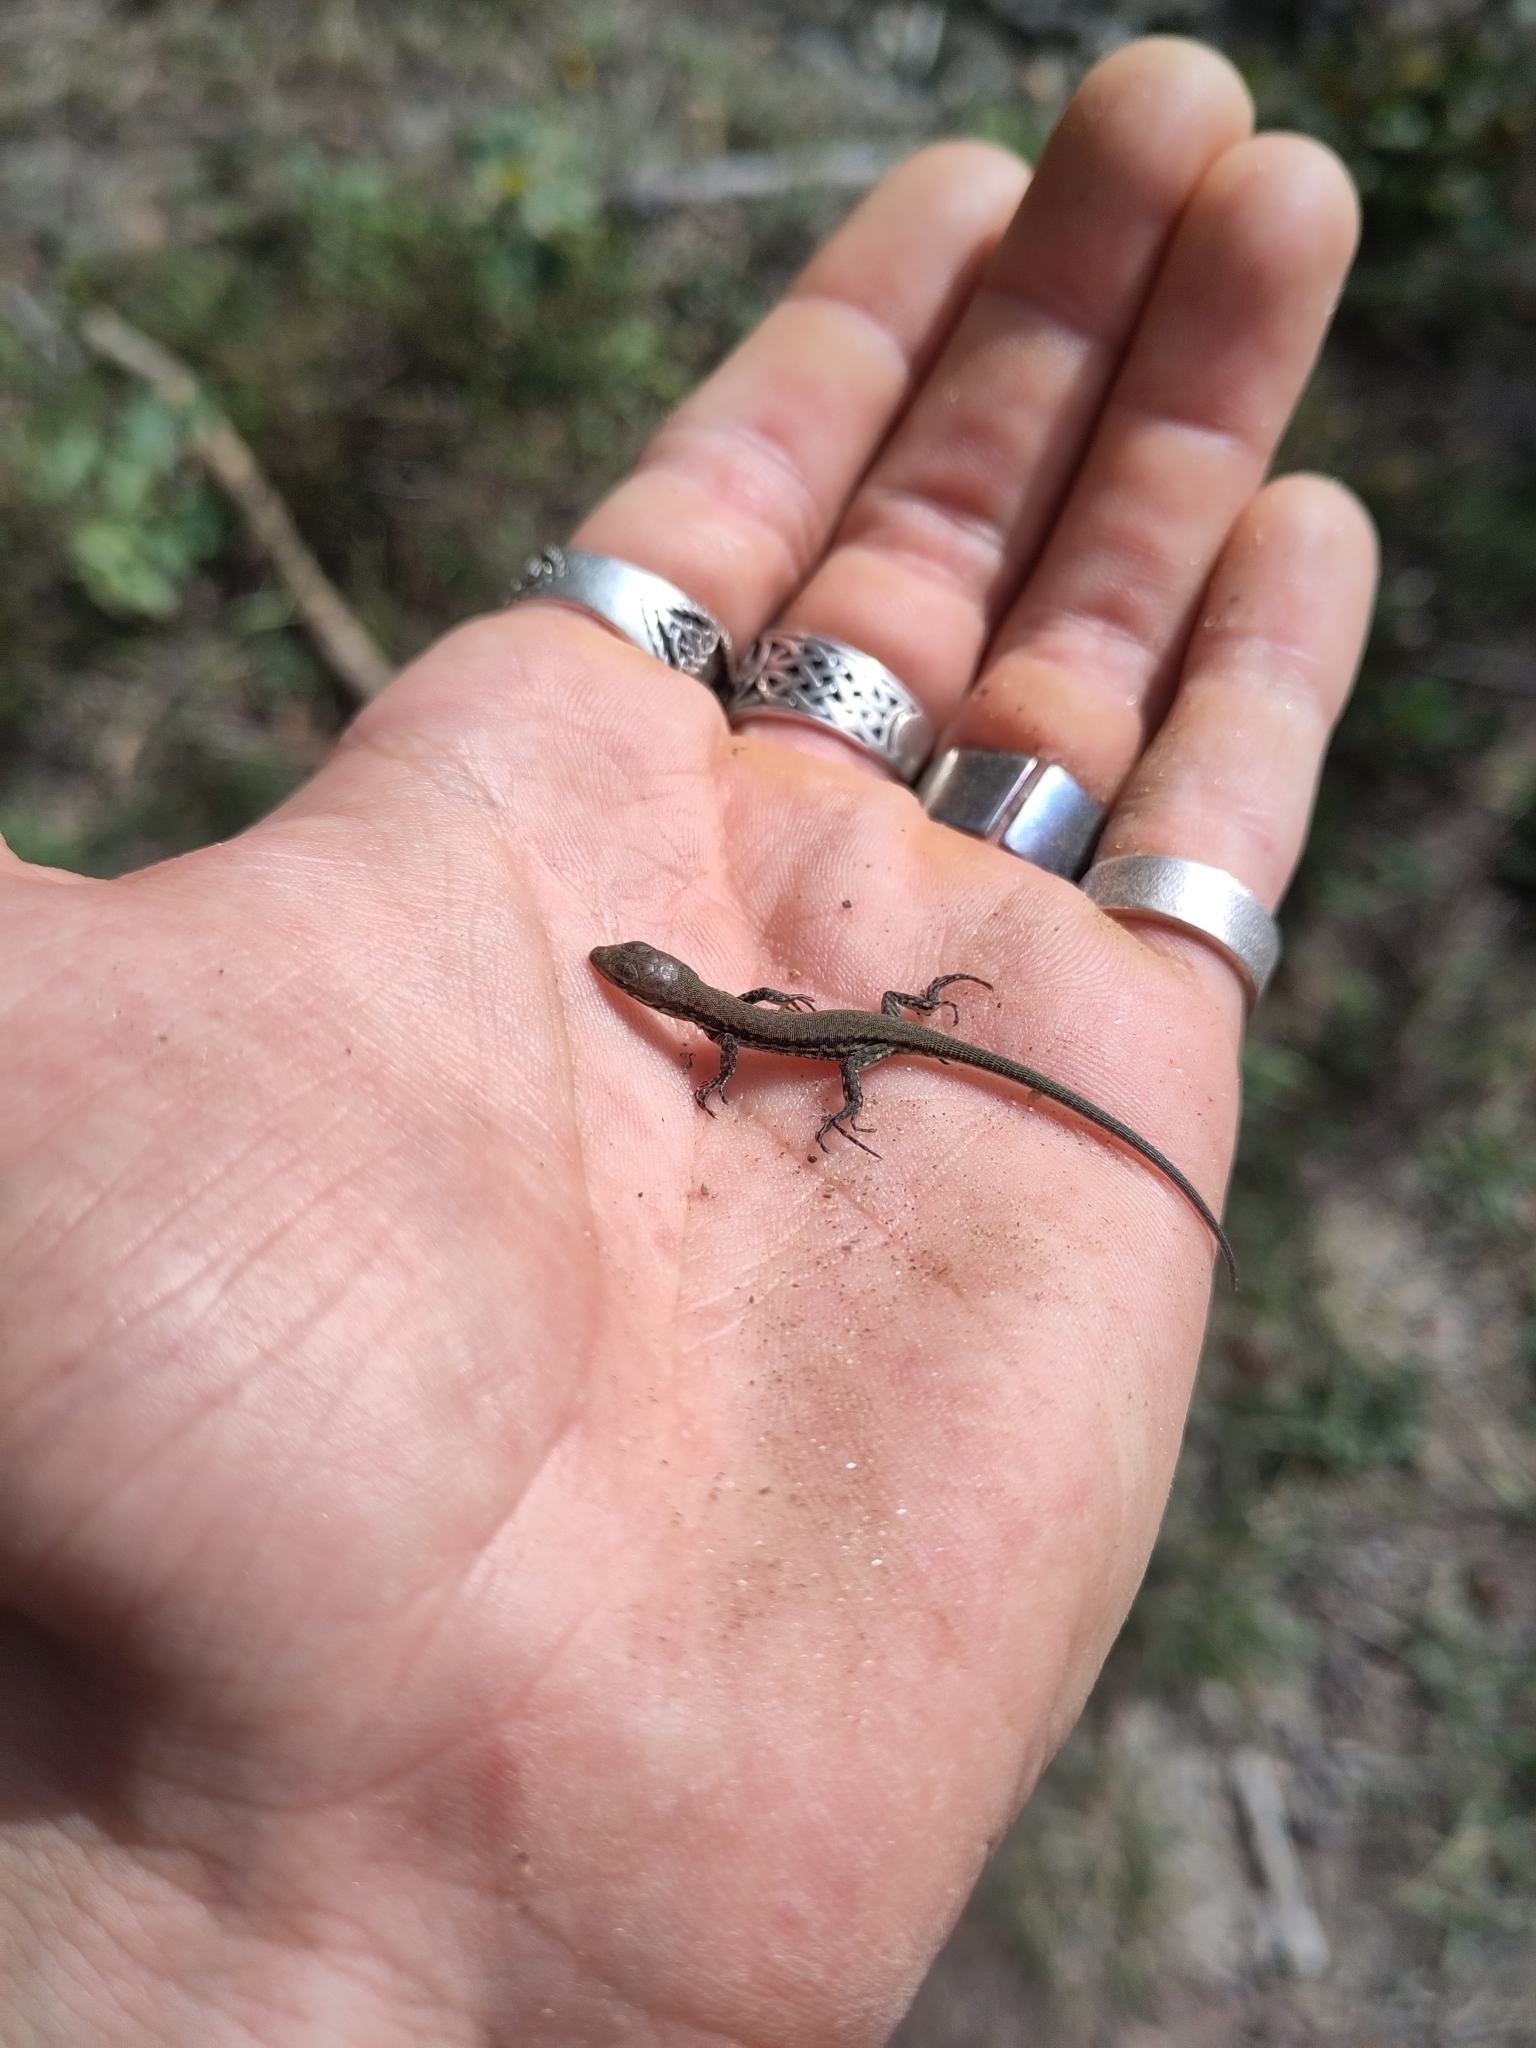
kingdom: Animalia
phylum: Chordata
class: Squamata
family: Lacertidae
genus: Podarcis
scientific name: Podarcis muralis
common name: Common wall lizard
